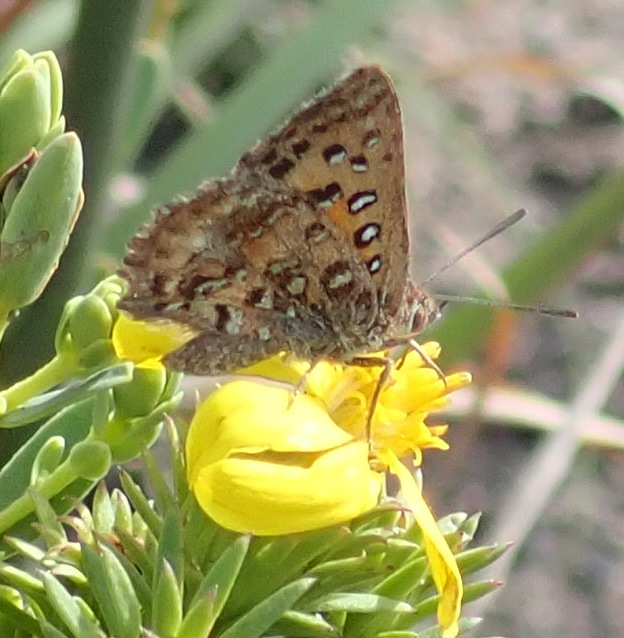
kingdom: Animalia
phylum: Arthropoda
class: Insecta
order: Lepidoptera
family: Lycaenidae
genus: Aloeides
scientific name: Aloeides pierus
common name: Dull copper
